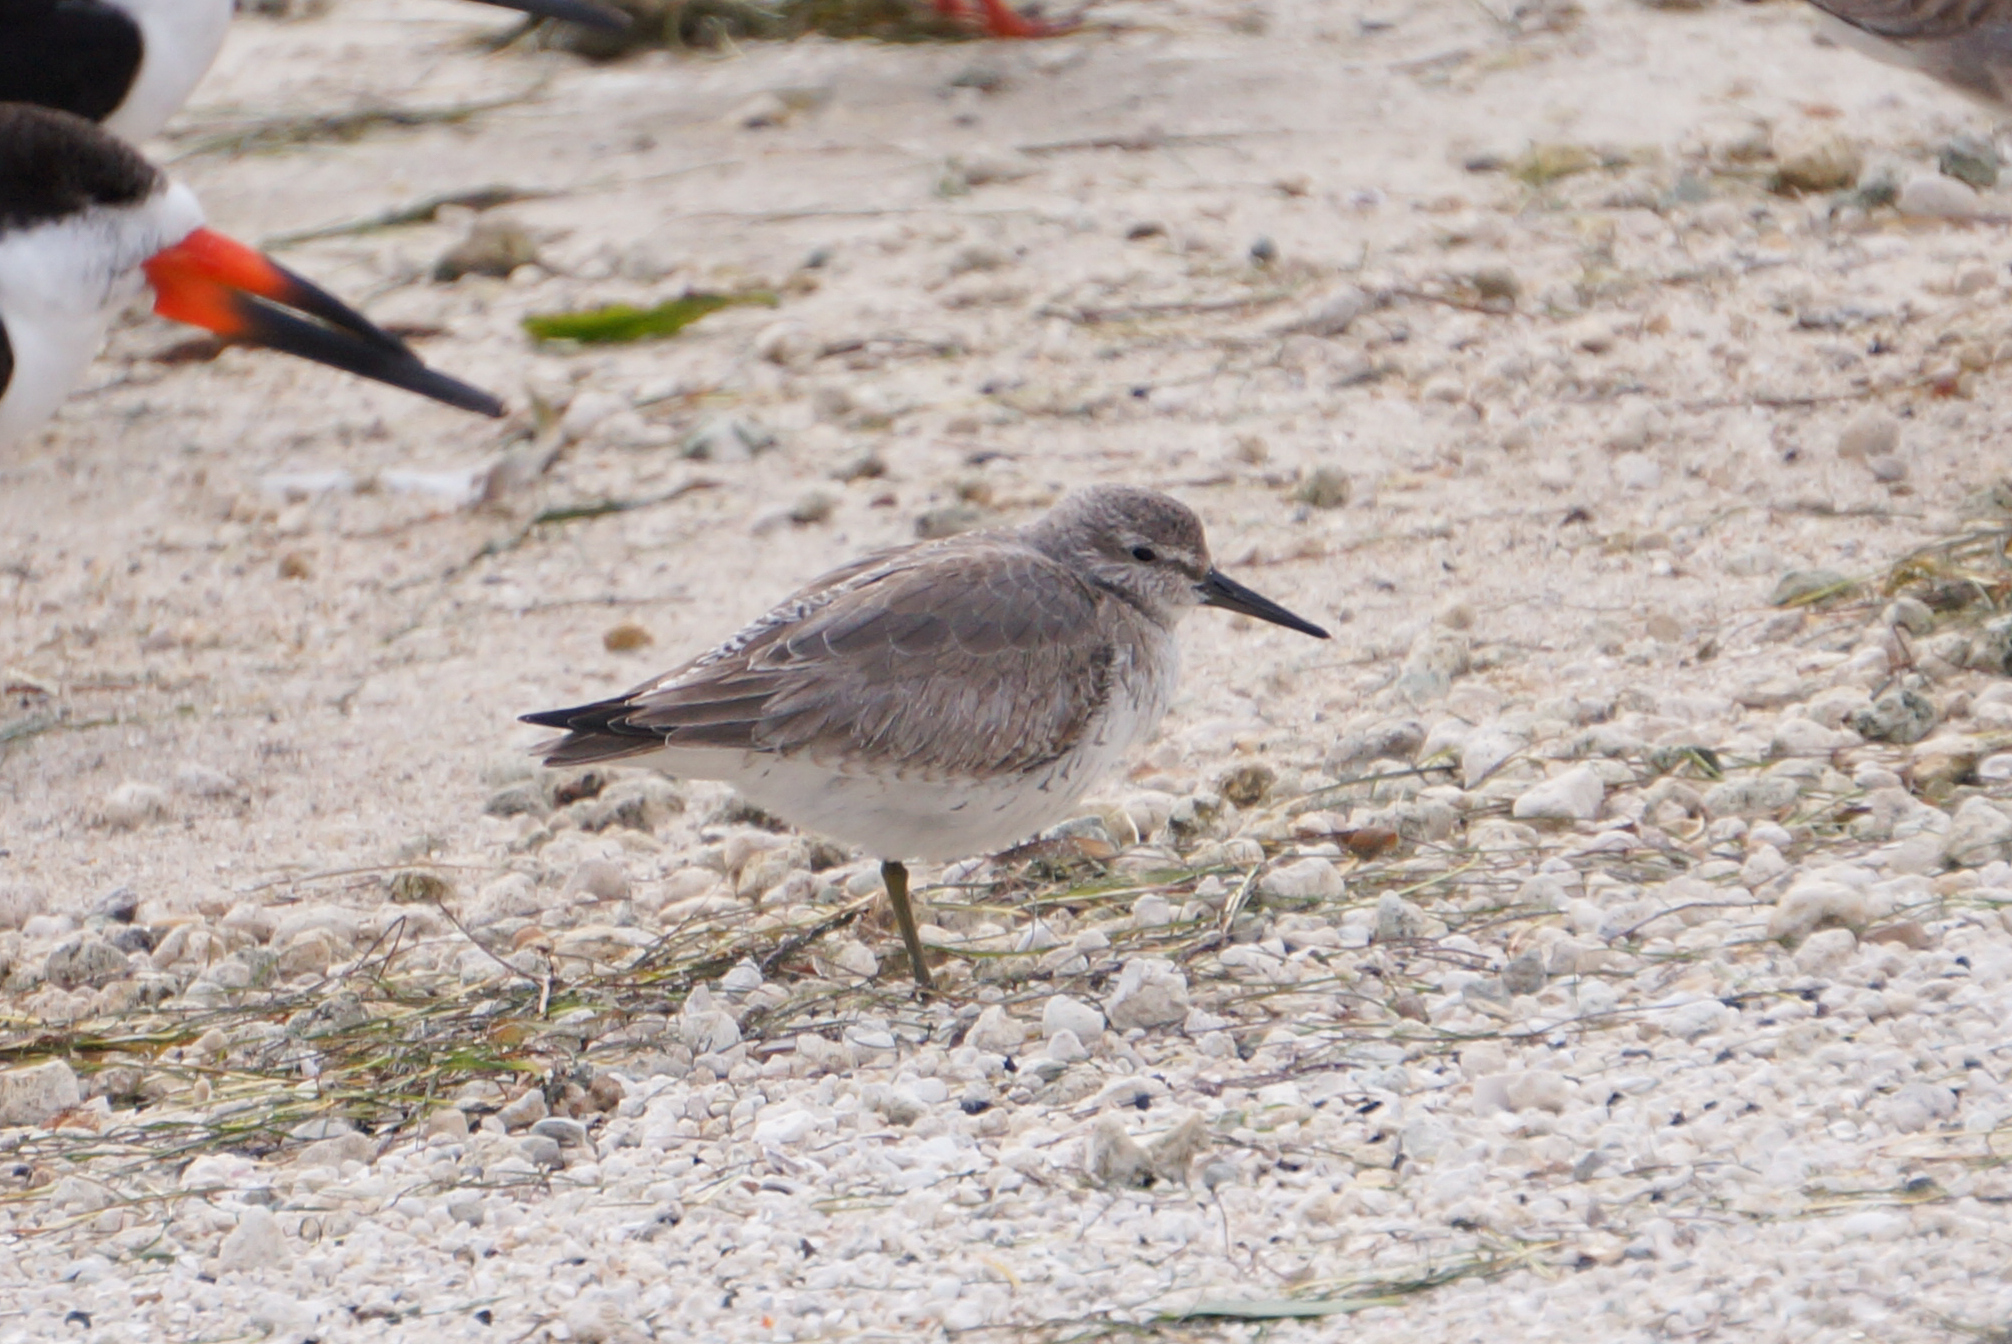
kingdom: Animalia
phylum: Chordata
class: Aves
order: Charadriiformes
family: Scolopacidae
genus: Calidris
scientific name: Calidris canutus
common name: Red knot
